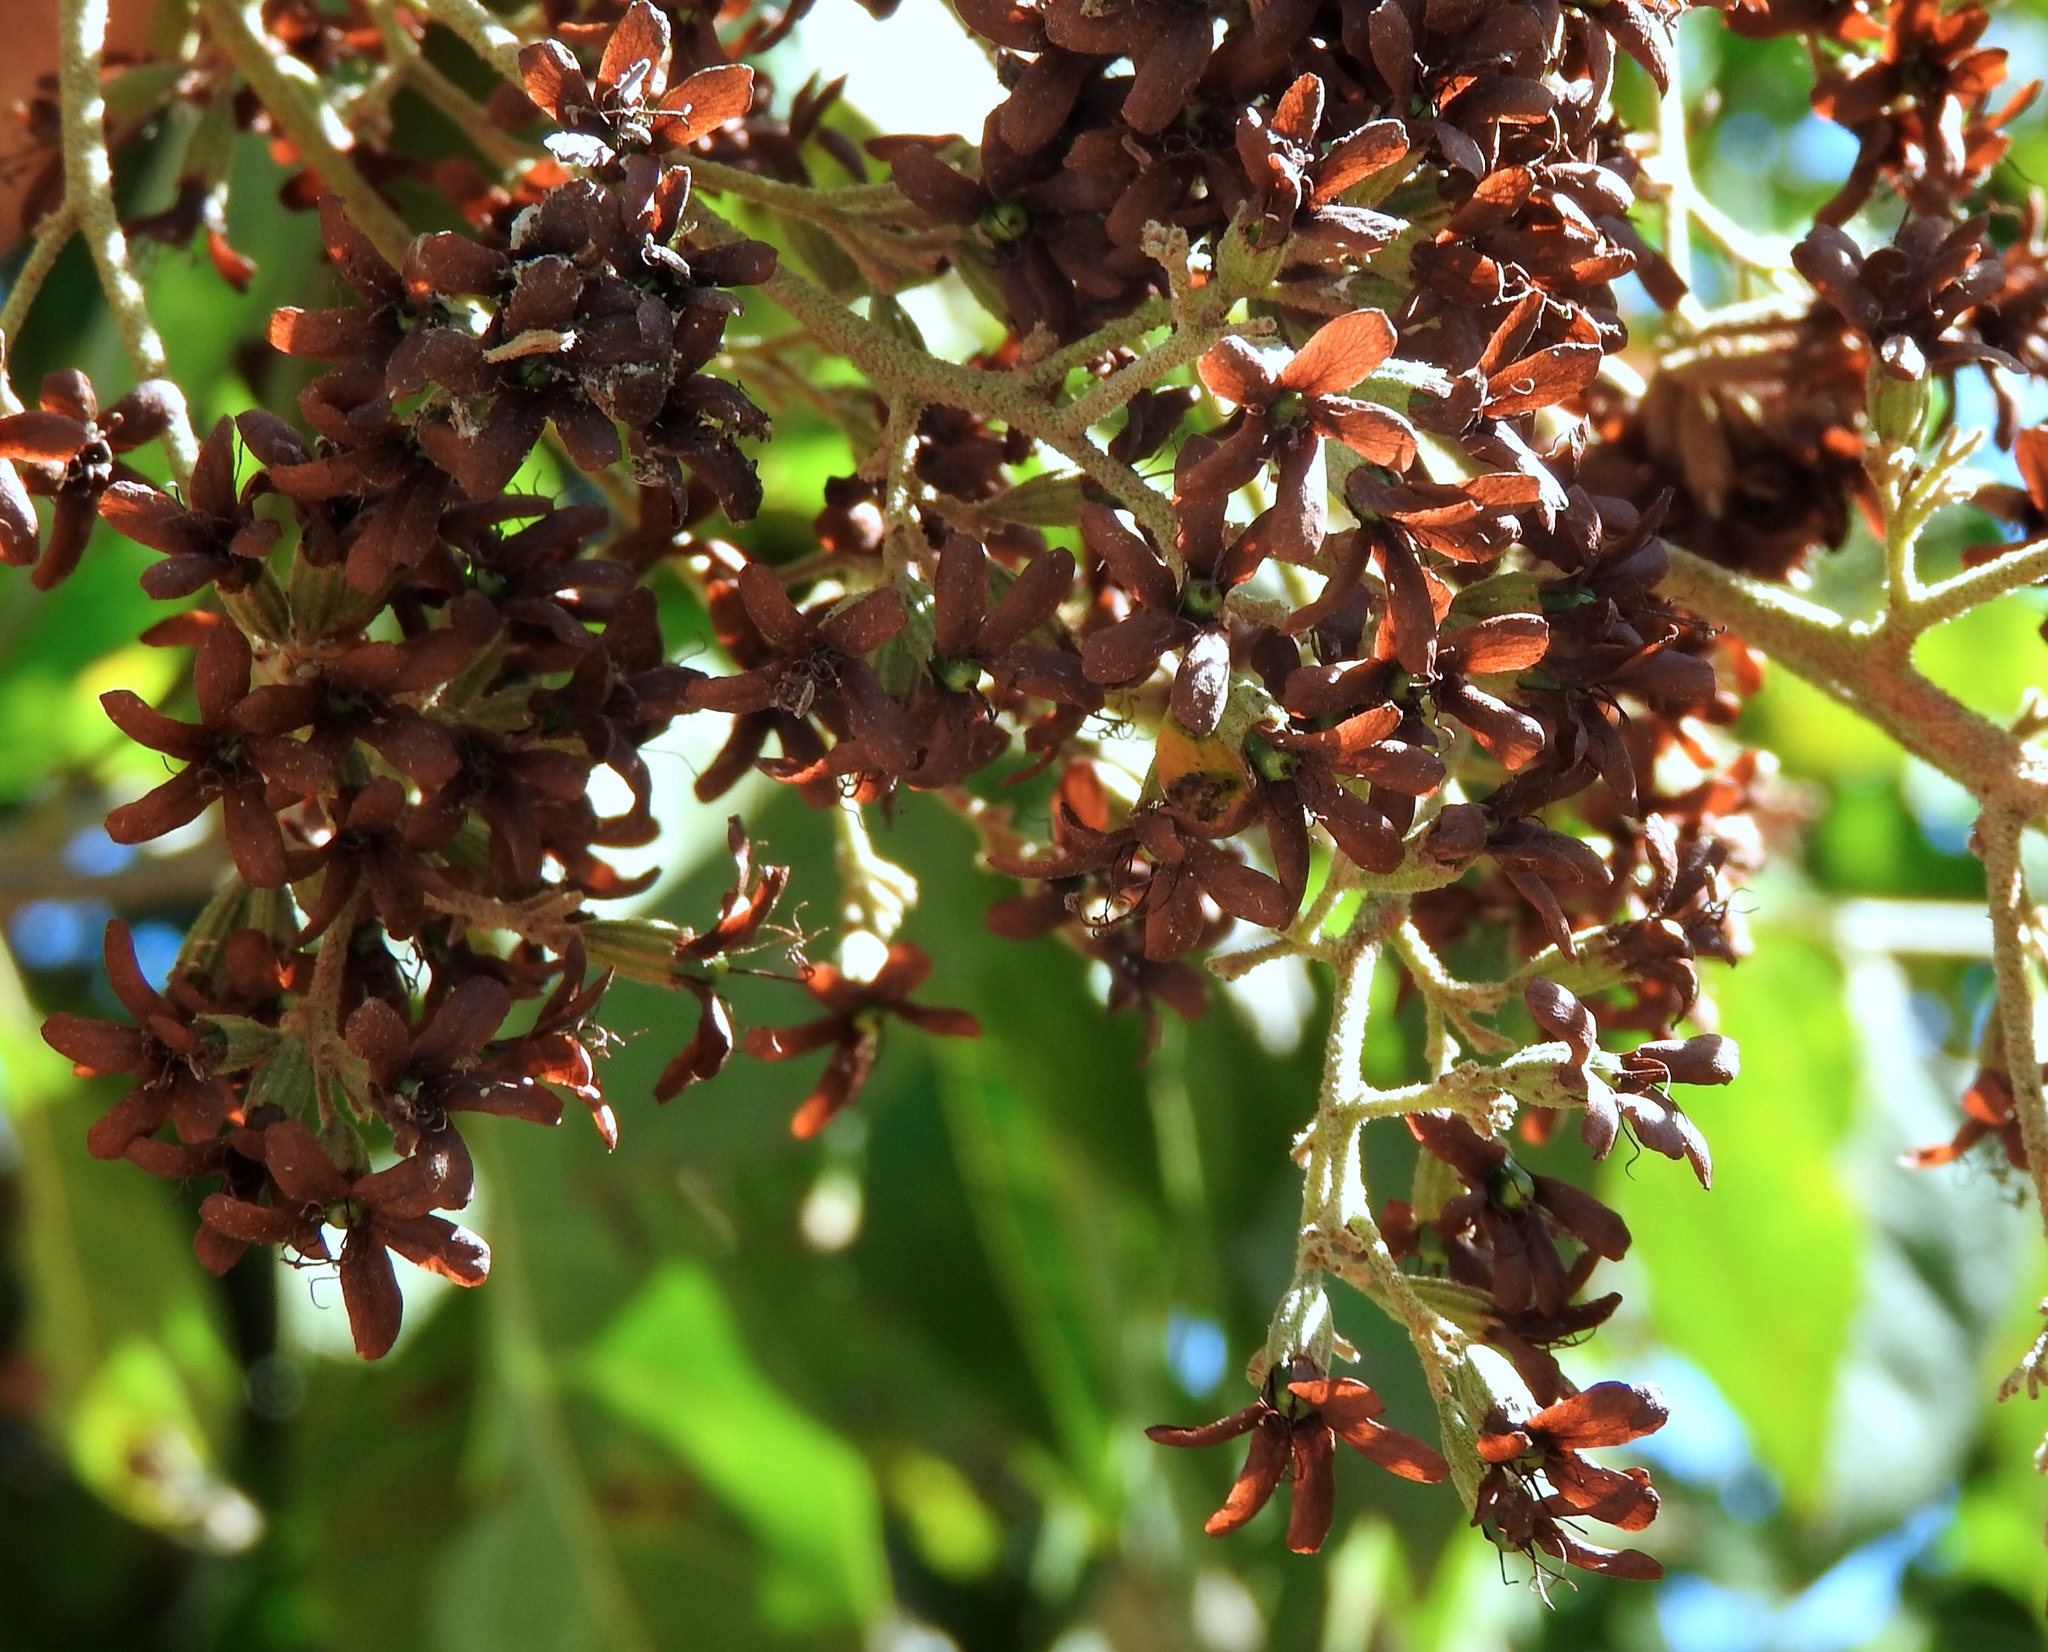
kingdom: Plantae
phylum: Tracheophyta
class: Magnoliopsida
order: Boraginales
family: Cordiaceae
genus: Cordia
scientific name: Cordia alliodora
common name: Spanish elm
